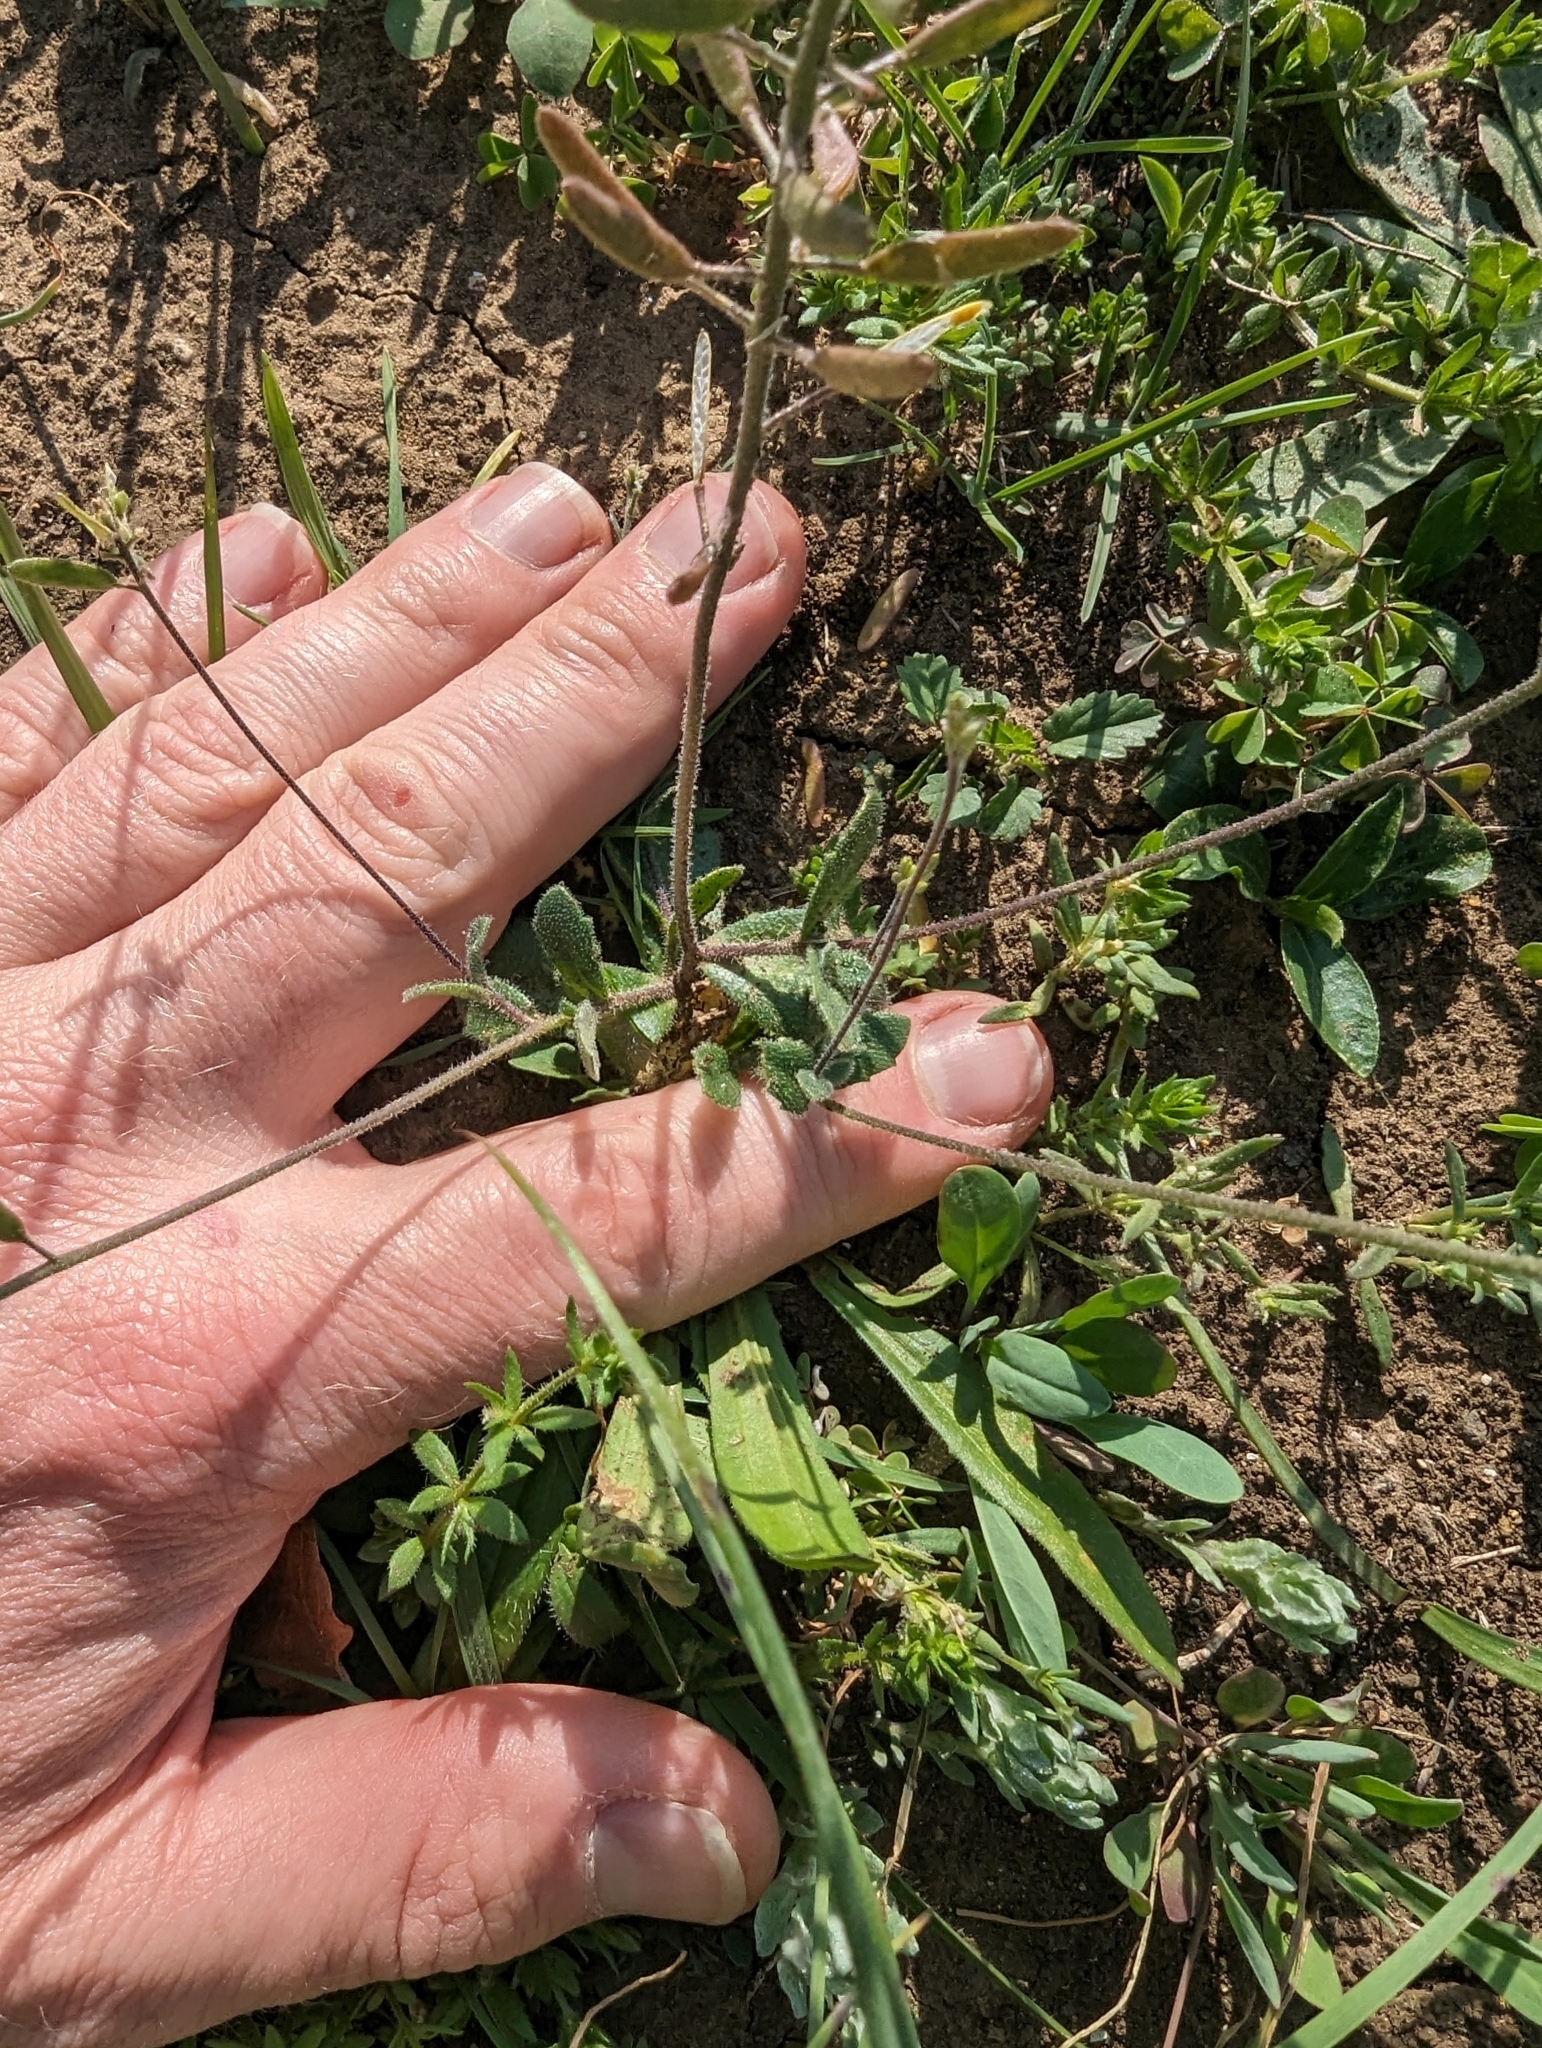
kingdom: Plantae
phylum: Tracheophyta
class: Magnoliopsida
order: Brassicales
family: Brassicaceae
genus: Tomostima
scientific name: Tomostima cuneifolia
